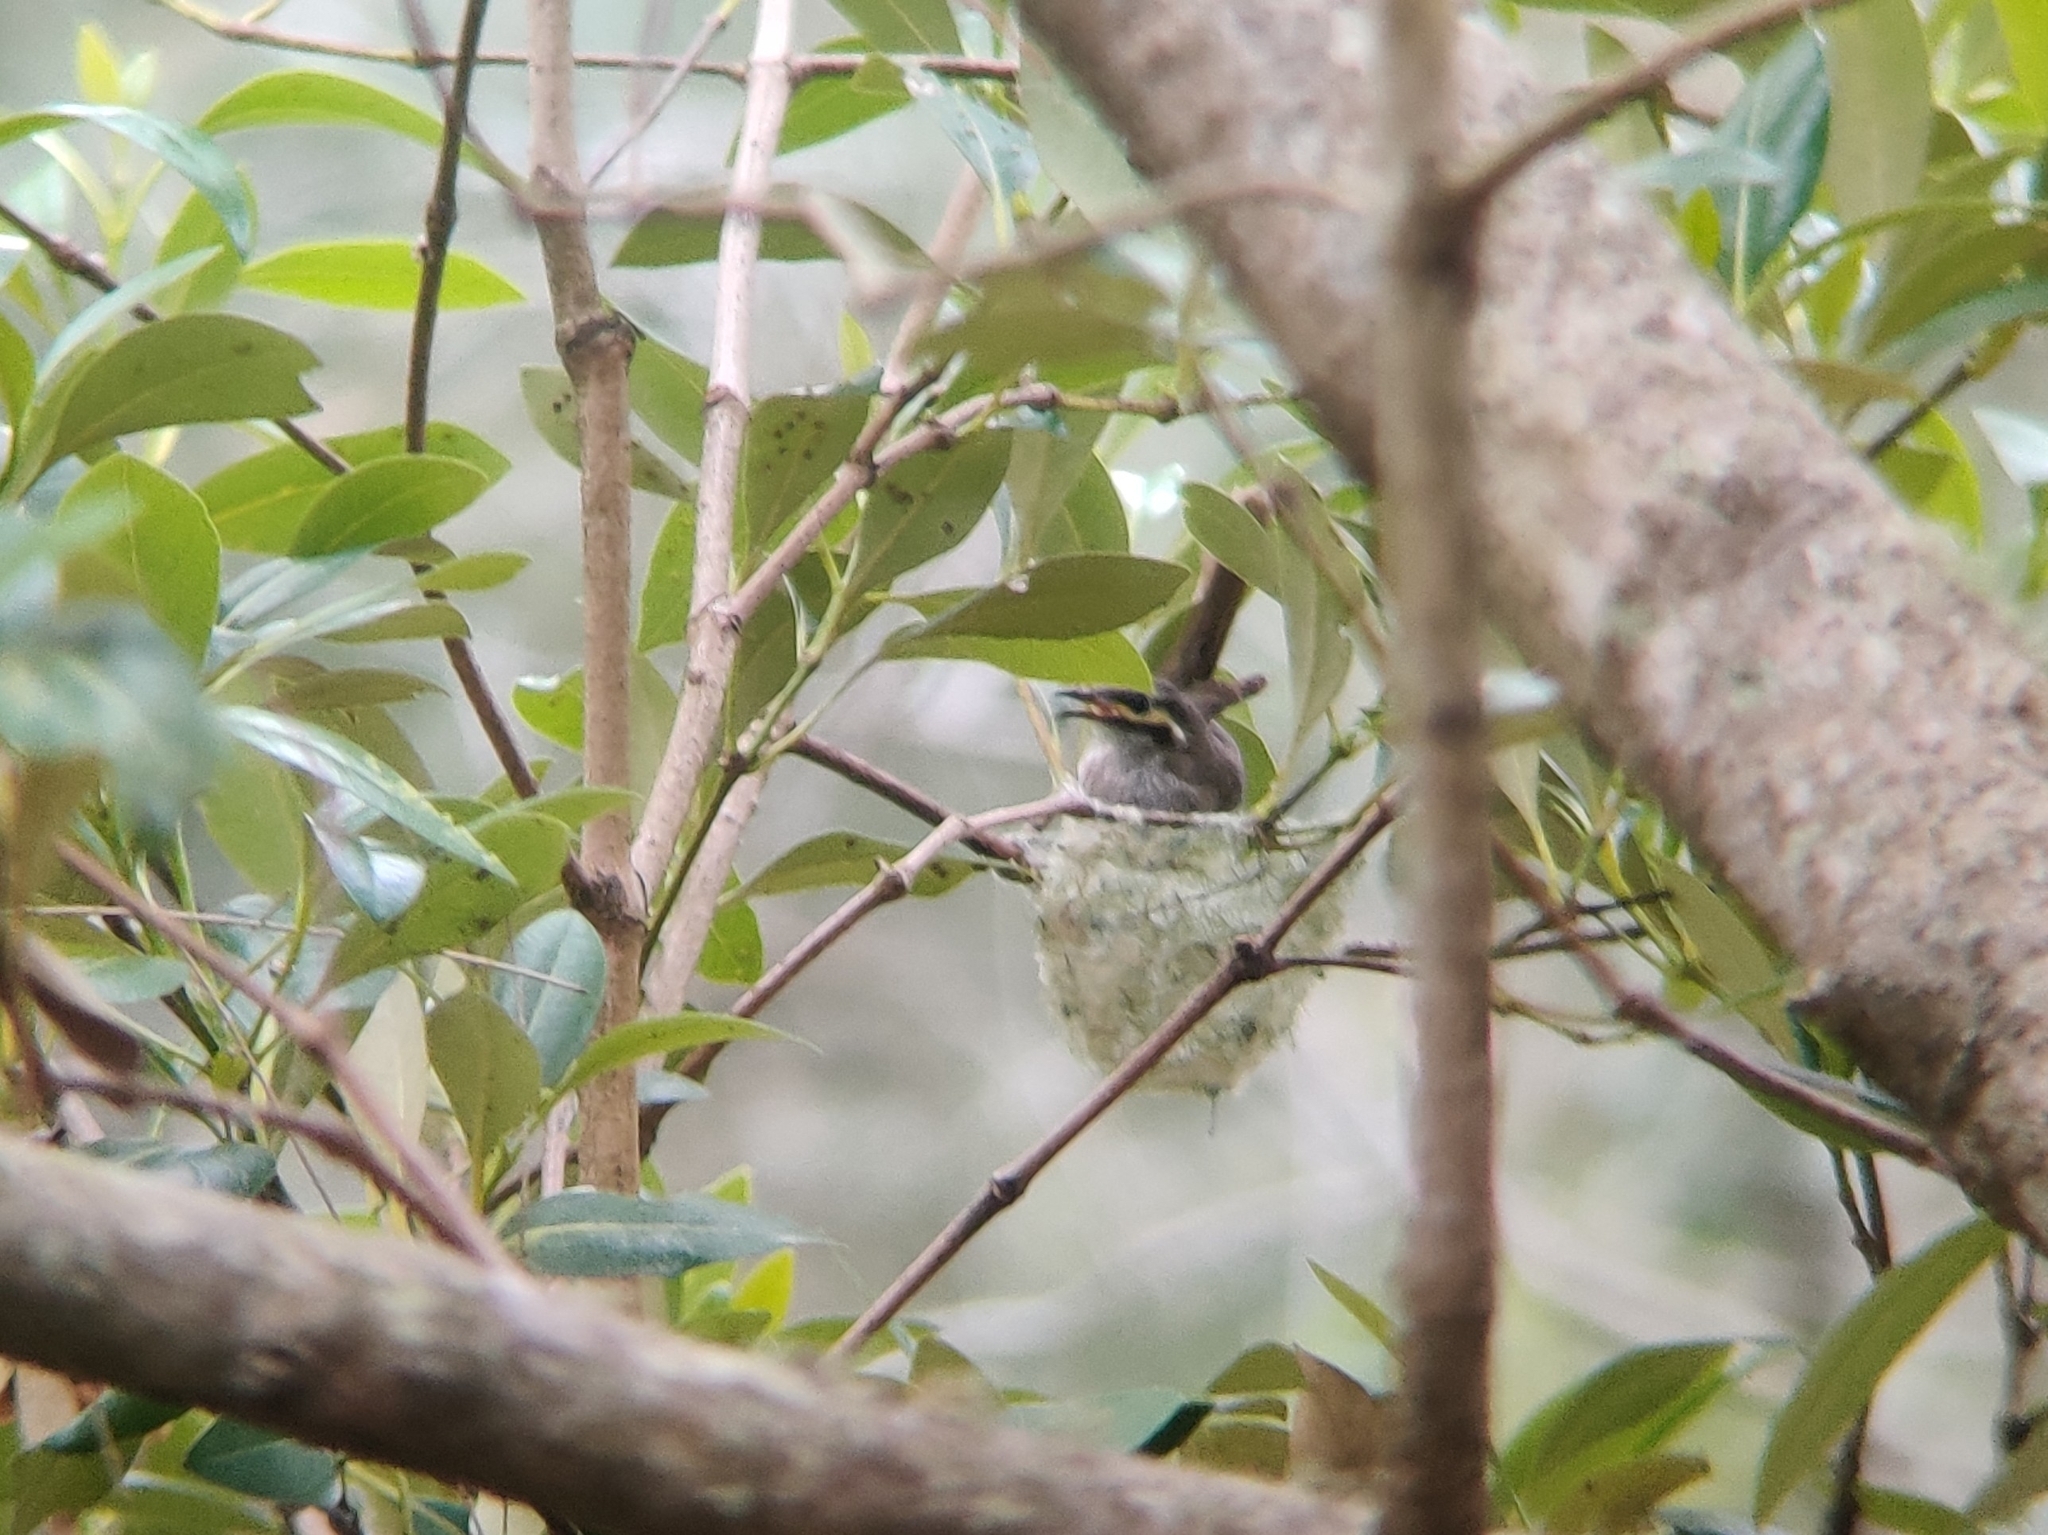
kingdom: Animalia
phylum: Chordata
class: Aves
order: Passeriformes
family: Meliphagidae
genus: Caligavis
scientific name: Caligavis chrysops
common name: Yellow-faced honeyeater
